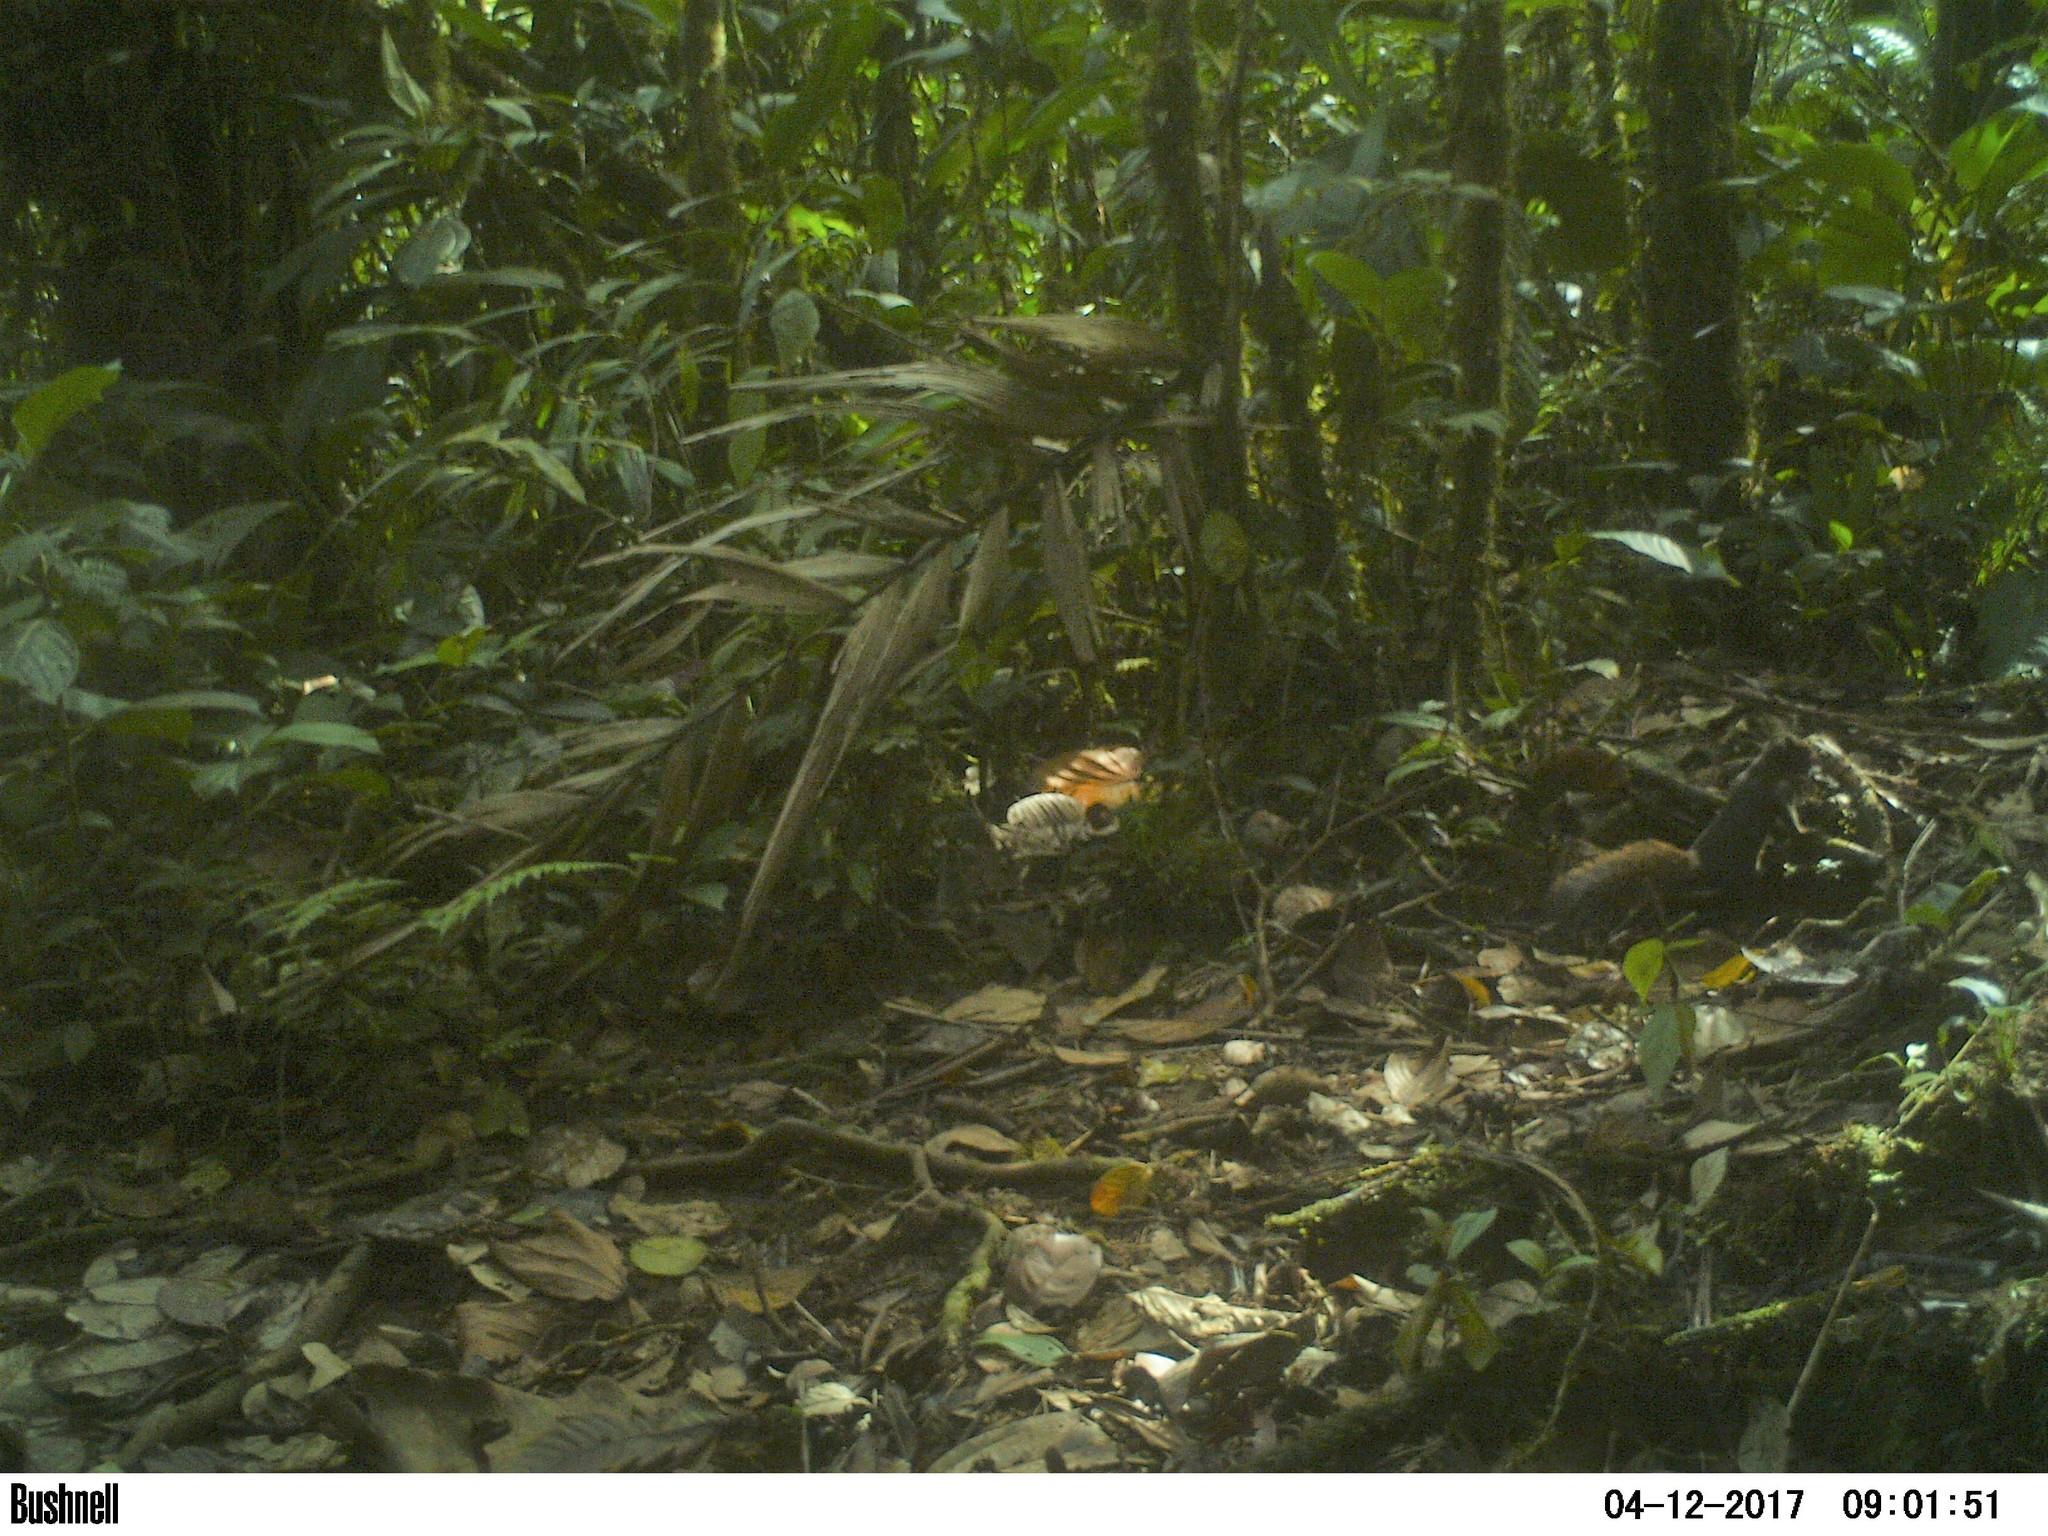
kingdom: Animalia
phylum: Chordata
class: Mammalia
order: Rodentia
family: Sciuridae
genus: Sciurus
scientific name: Sciurus granatensis
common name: Red-tailed squirrel
